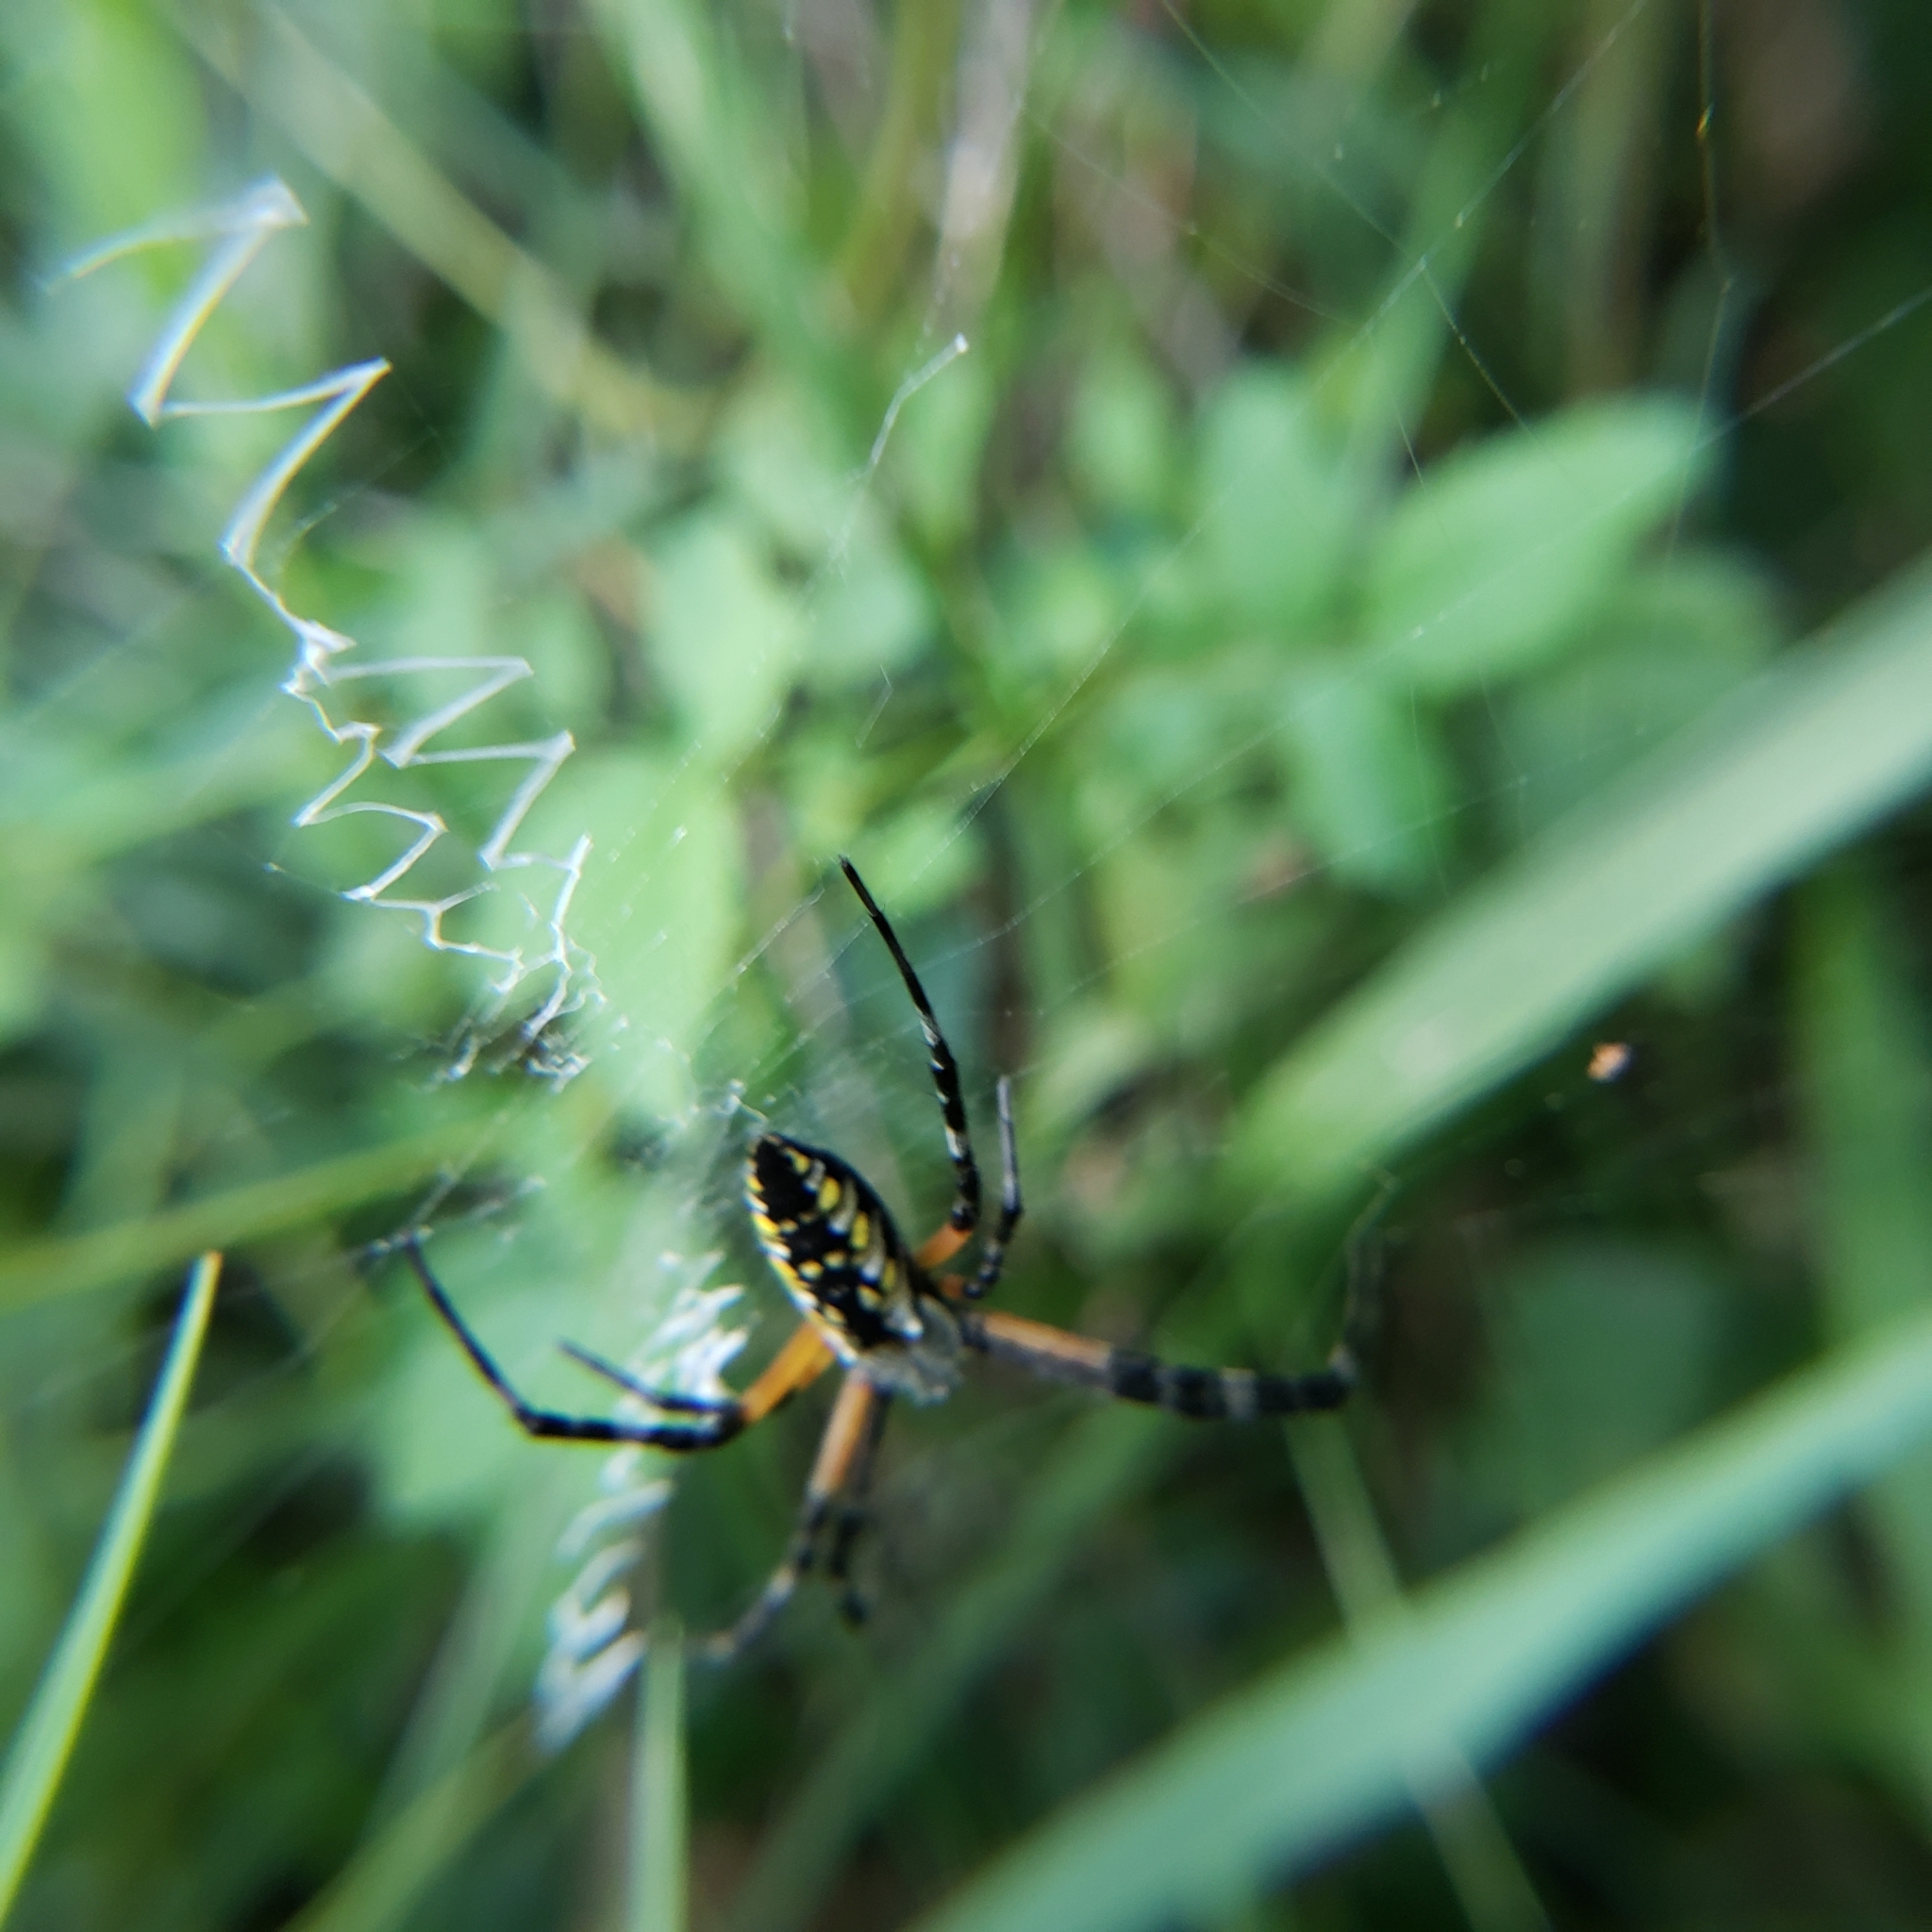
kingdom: Animalia
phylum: Arthropoda
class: Arachnida
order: Araneae
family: Araneidae
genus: Argiope
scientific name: Argiope aurantia
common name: Orb weavers
